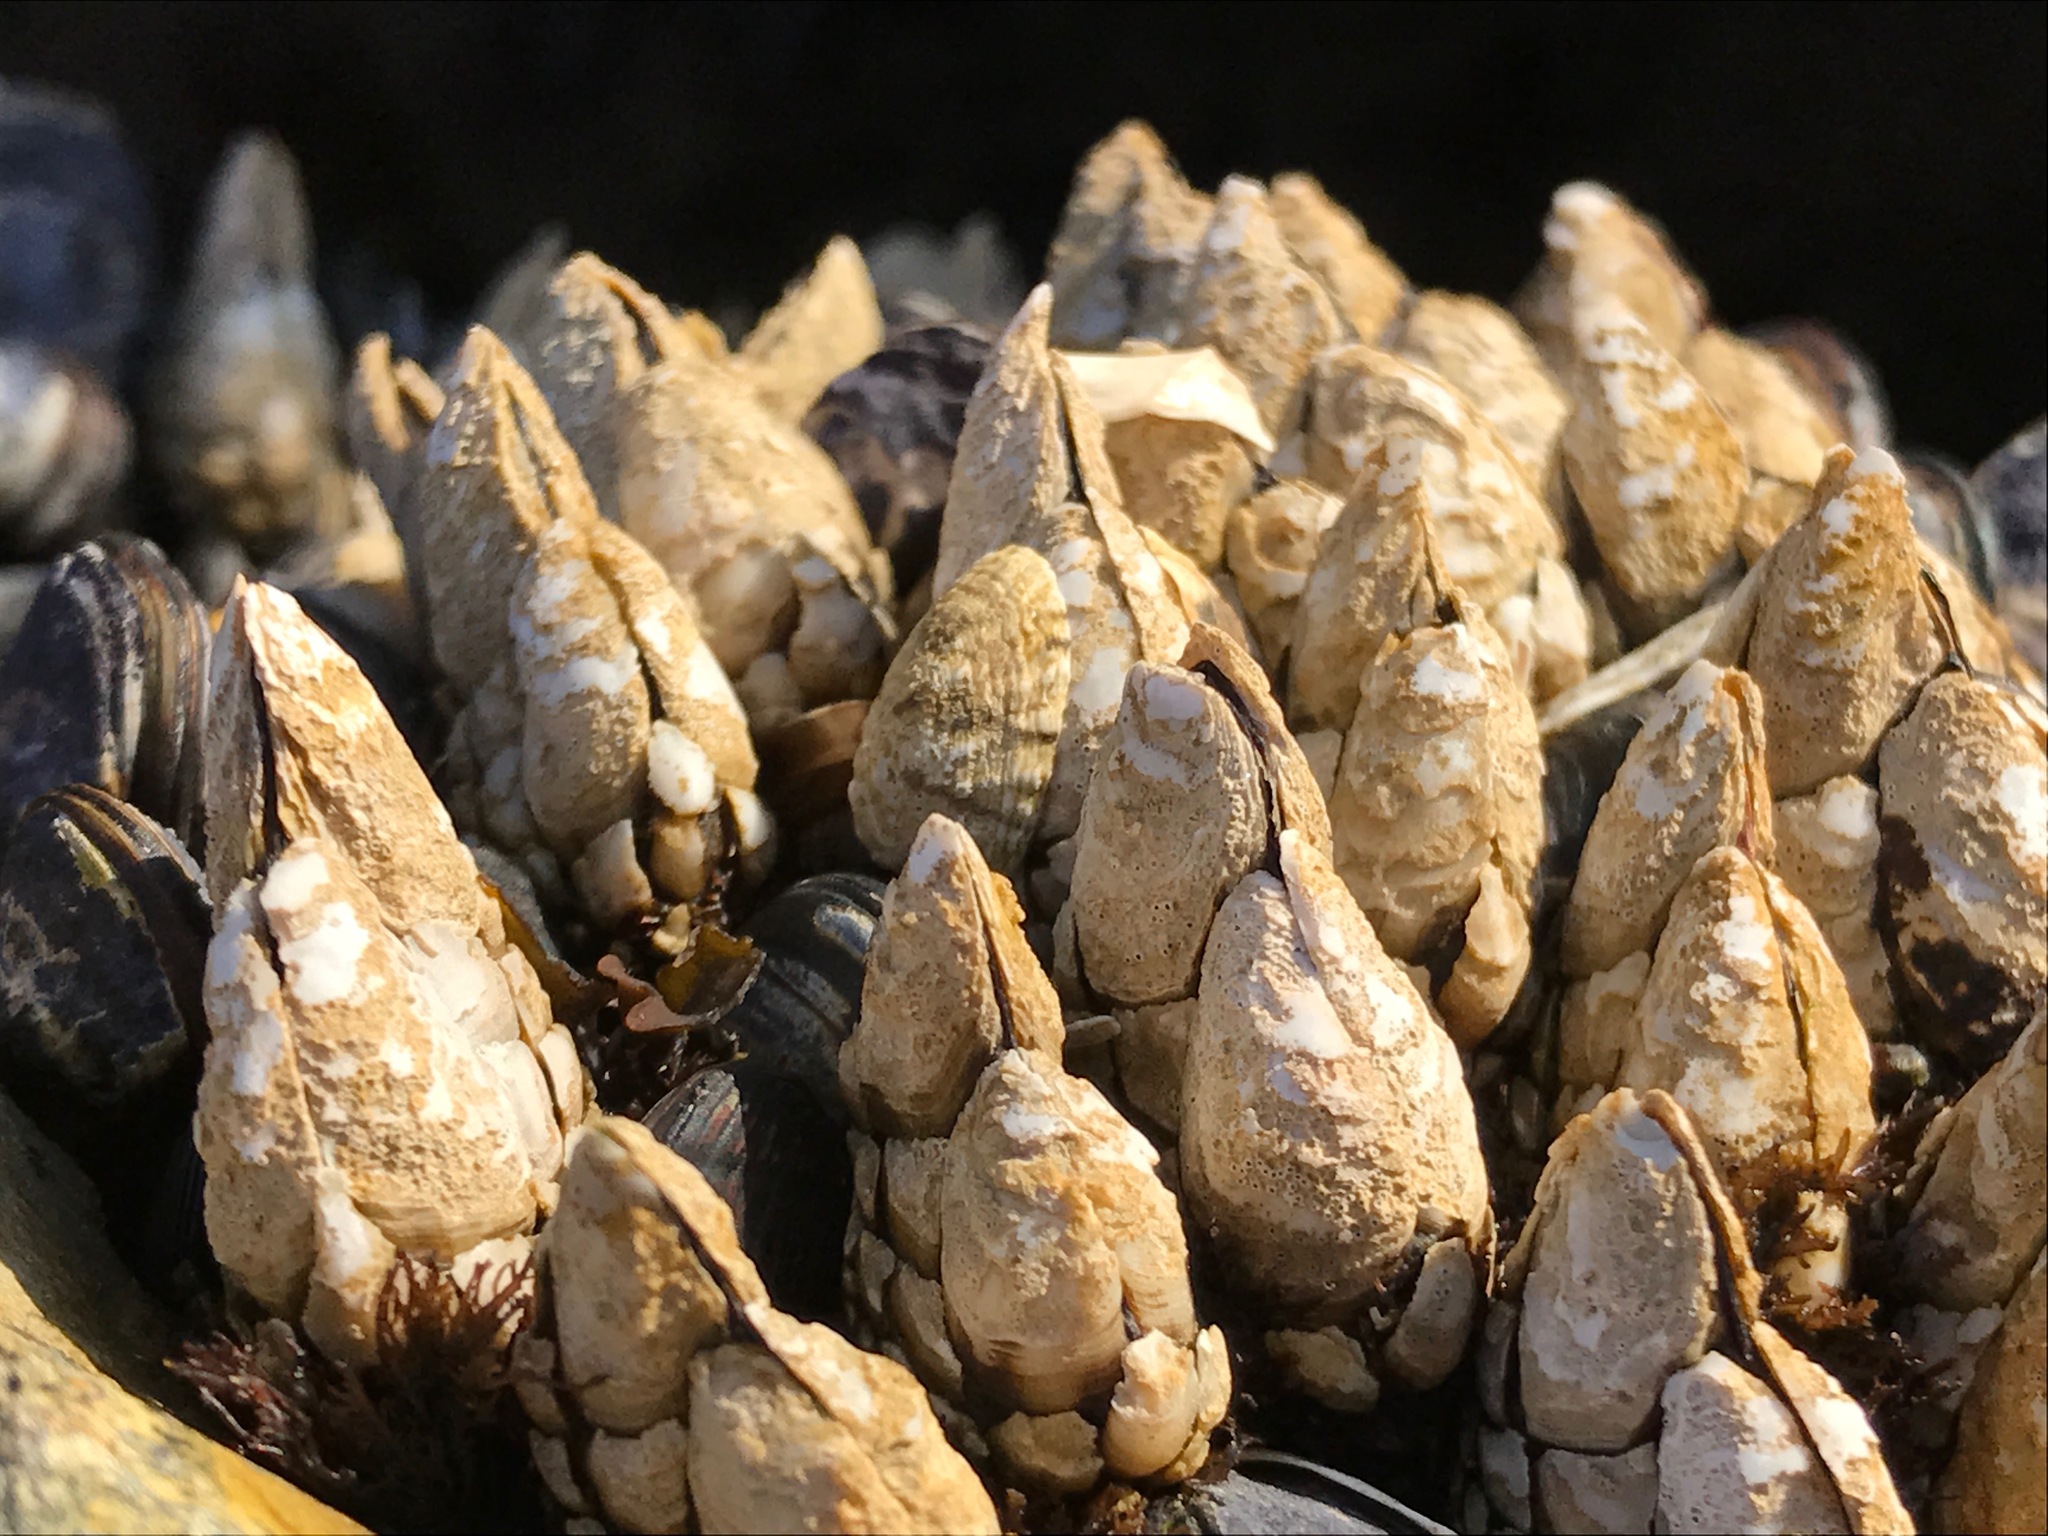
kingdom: Animalia
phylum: Arthropoda
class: Maxillopoda
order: Pedunculata
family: Pollicipedidae
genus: Pollicipes
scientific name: Pollicipes polymerus
